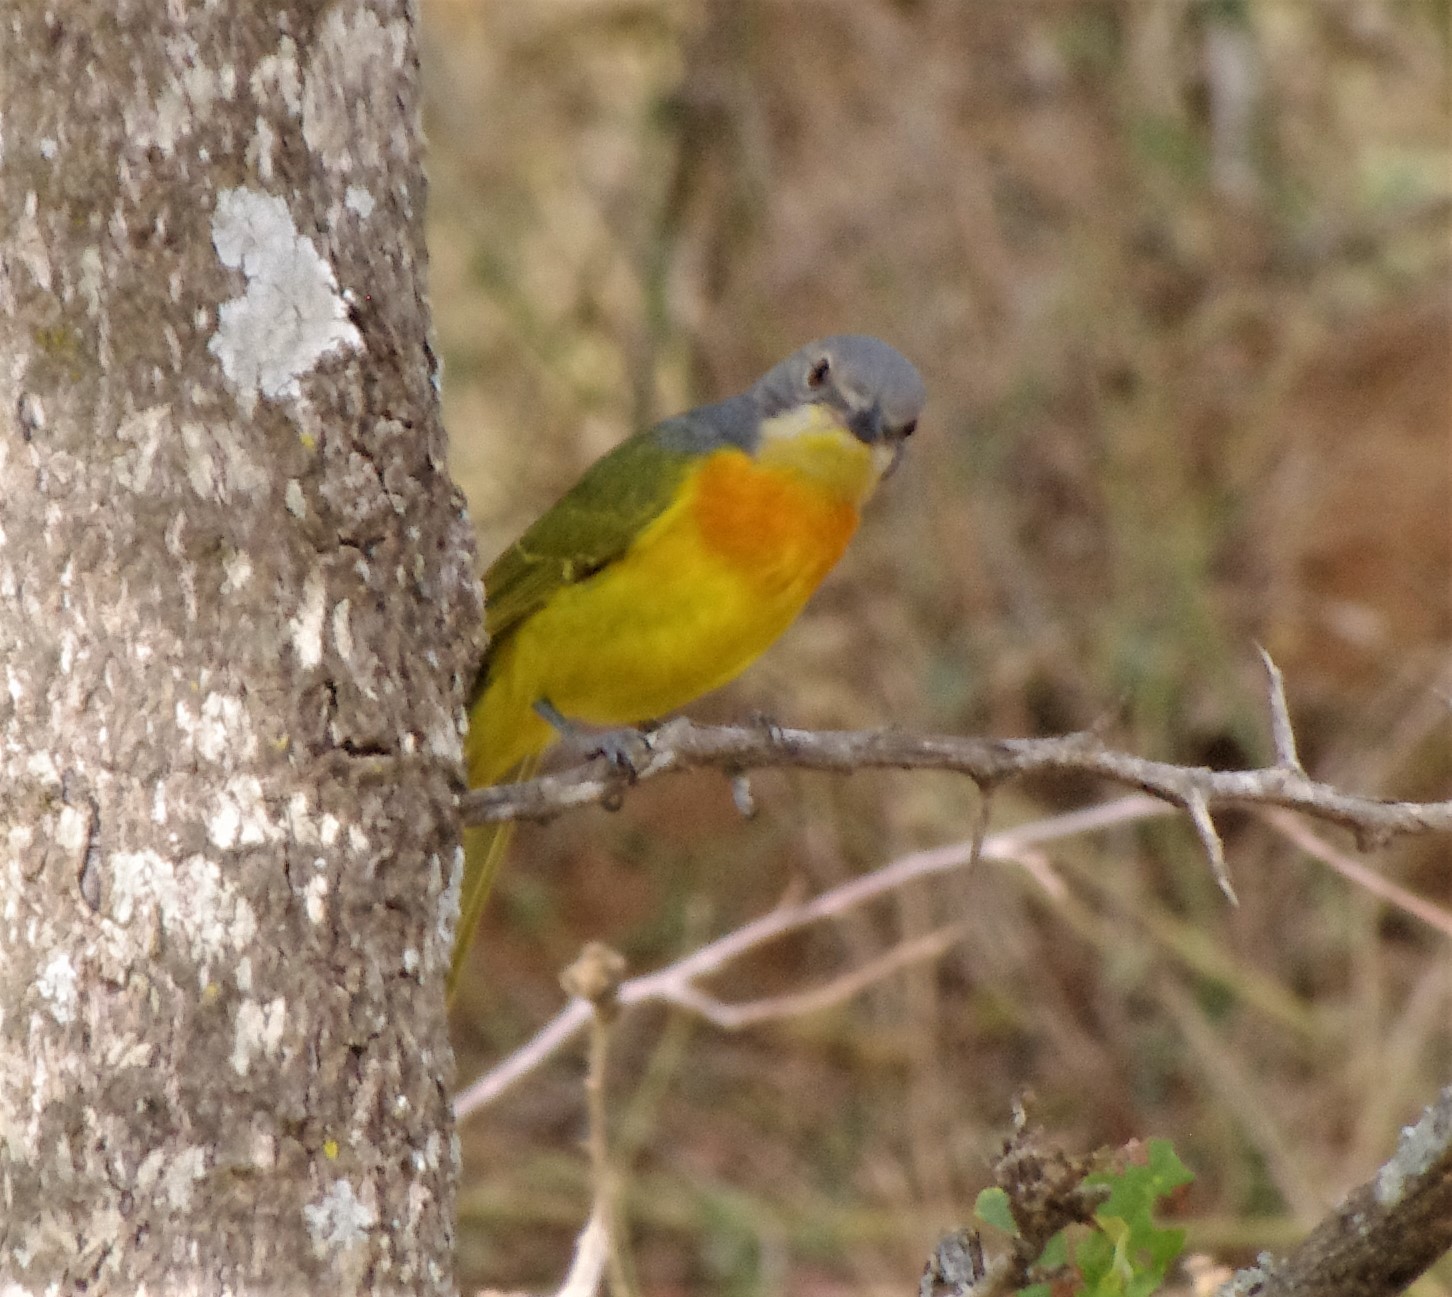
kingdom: Animalia
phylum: Chordata
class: Aves
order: Passeriformes
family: Malaconotidae
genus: Chlorophoneus
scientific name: Chlorophoneus sulfureopectus
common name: Orange-breasted bushshrike
